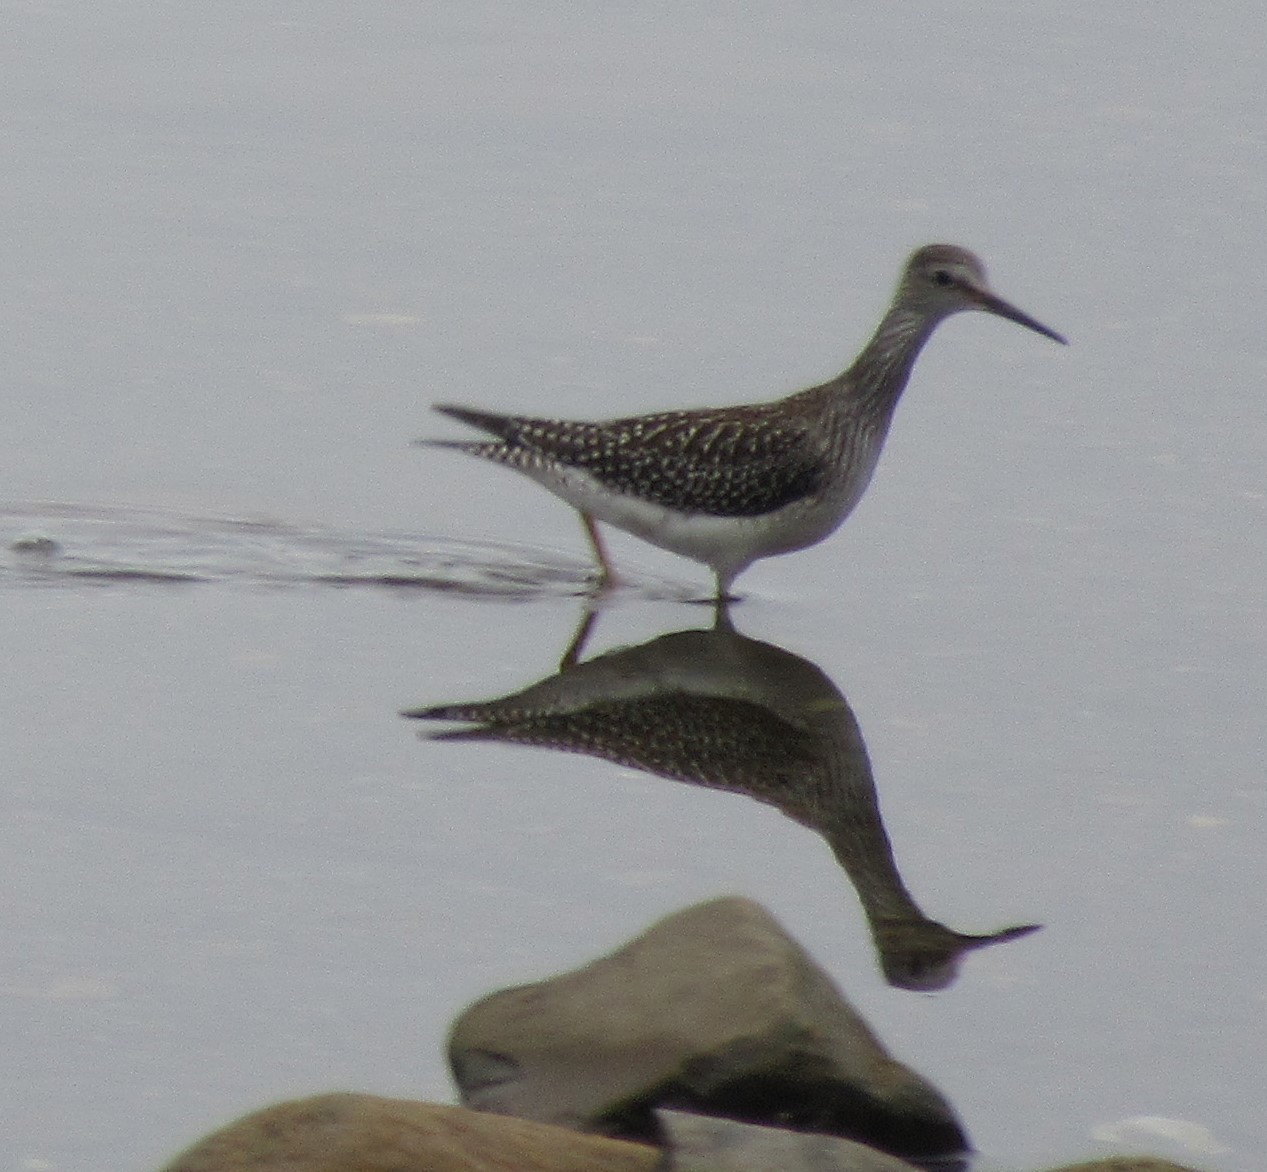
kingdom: Animalia
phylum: Chordata
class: Aves
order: Charadriiformes
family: Scolopacidae
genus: Tringa
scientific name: Tringa flavipes
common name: Lesser yellowlegs
